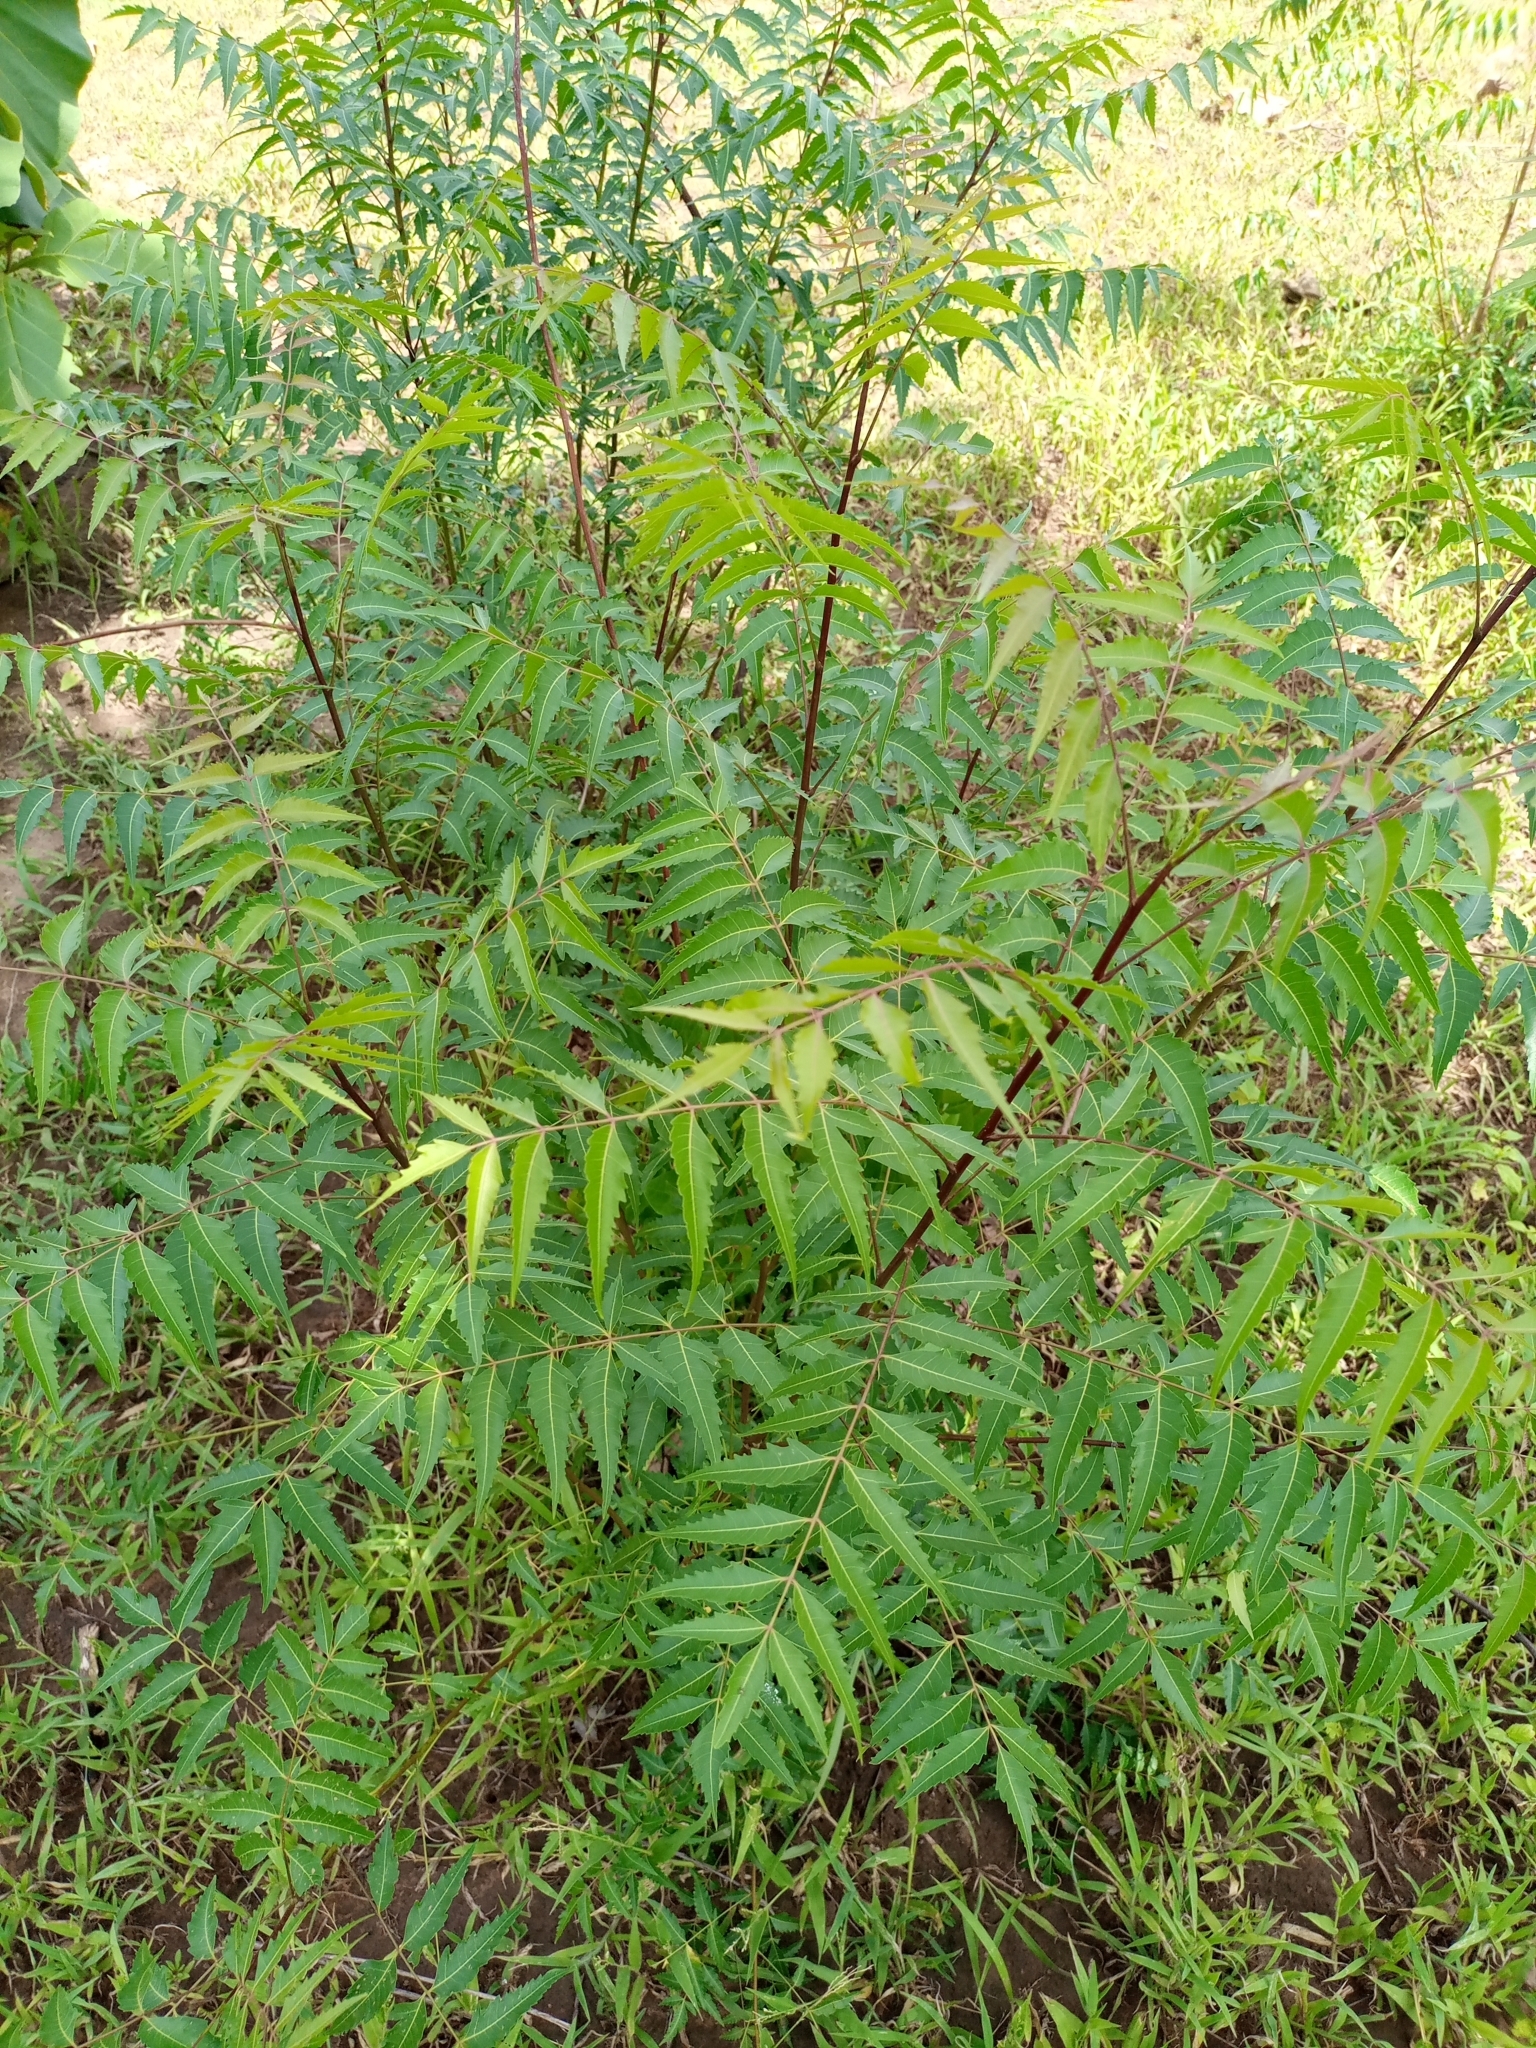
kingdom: Plantae
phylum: Tracheophyta
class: Magnoliopsida
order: Sapindales
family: Meliaceae
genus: Azadirachta
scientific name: Azadirachta indica
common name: Neem
